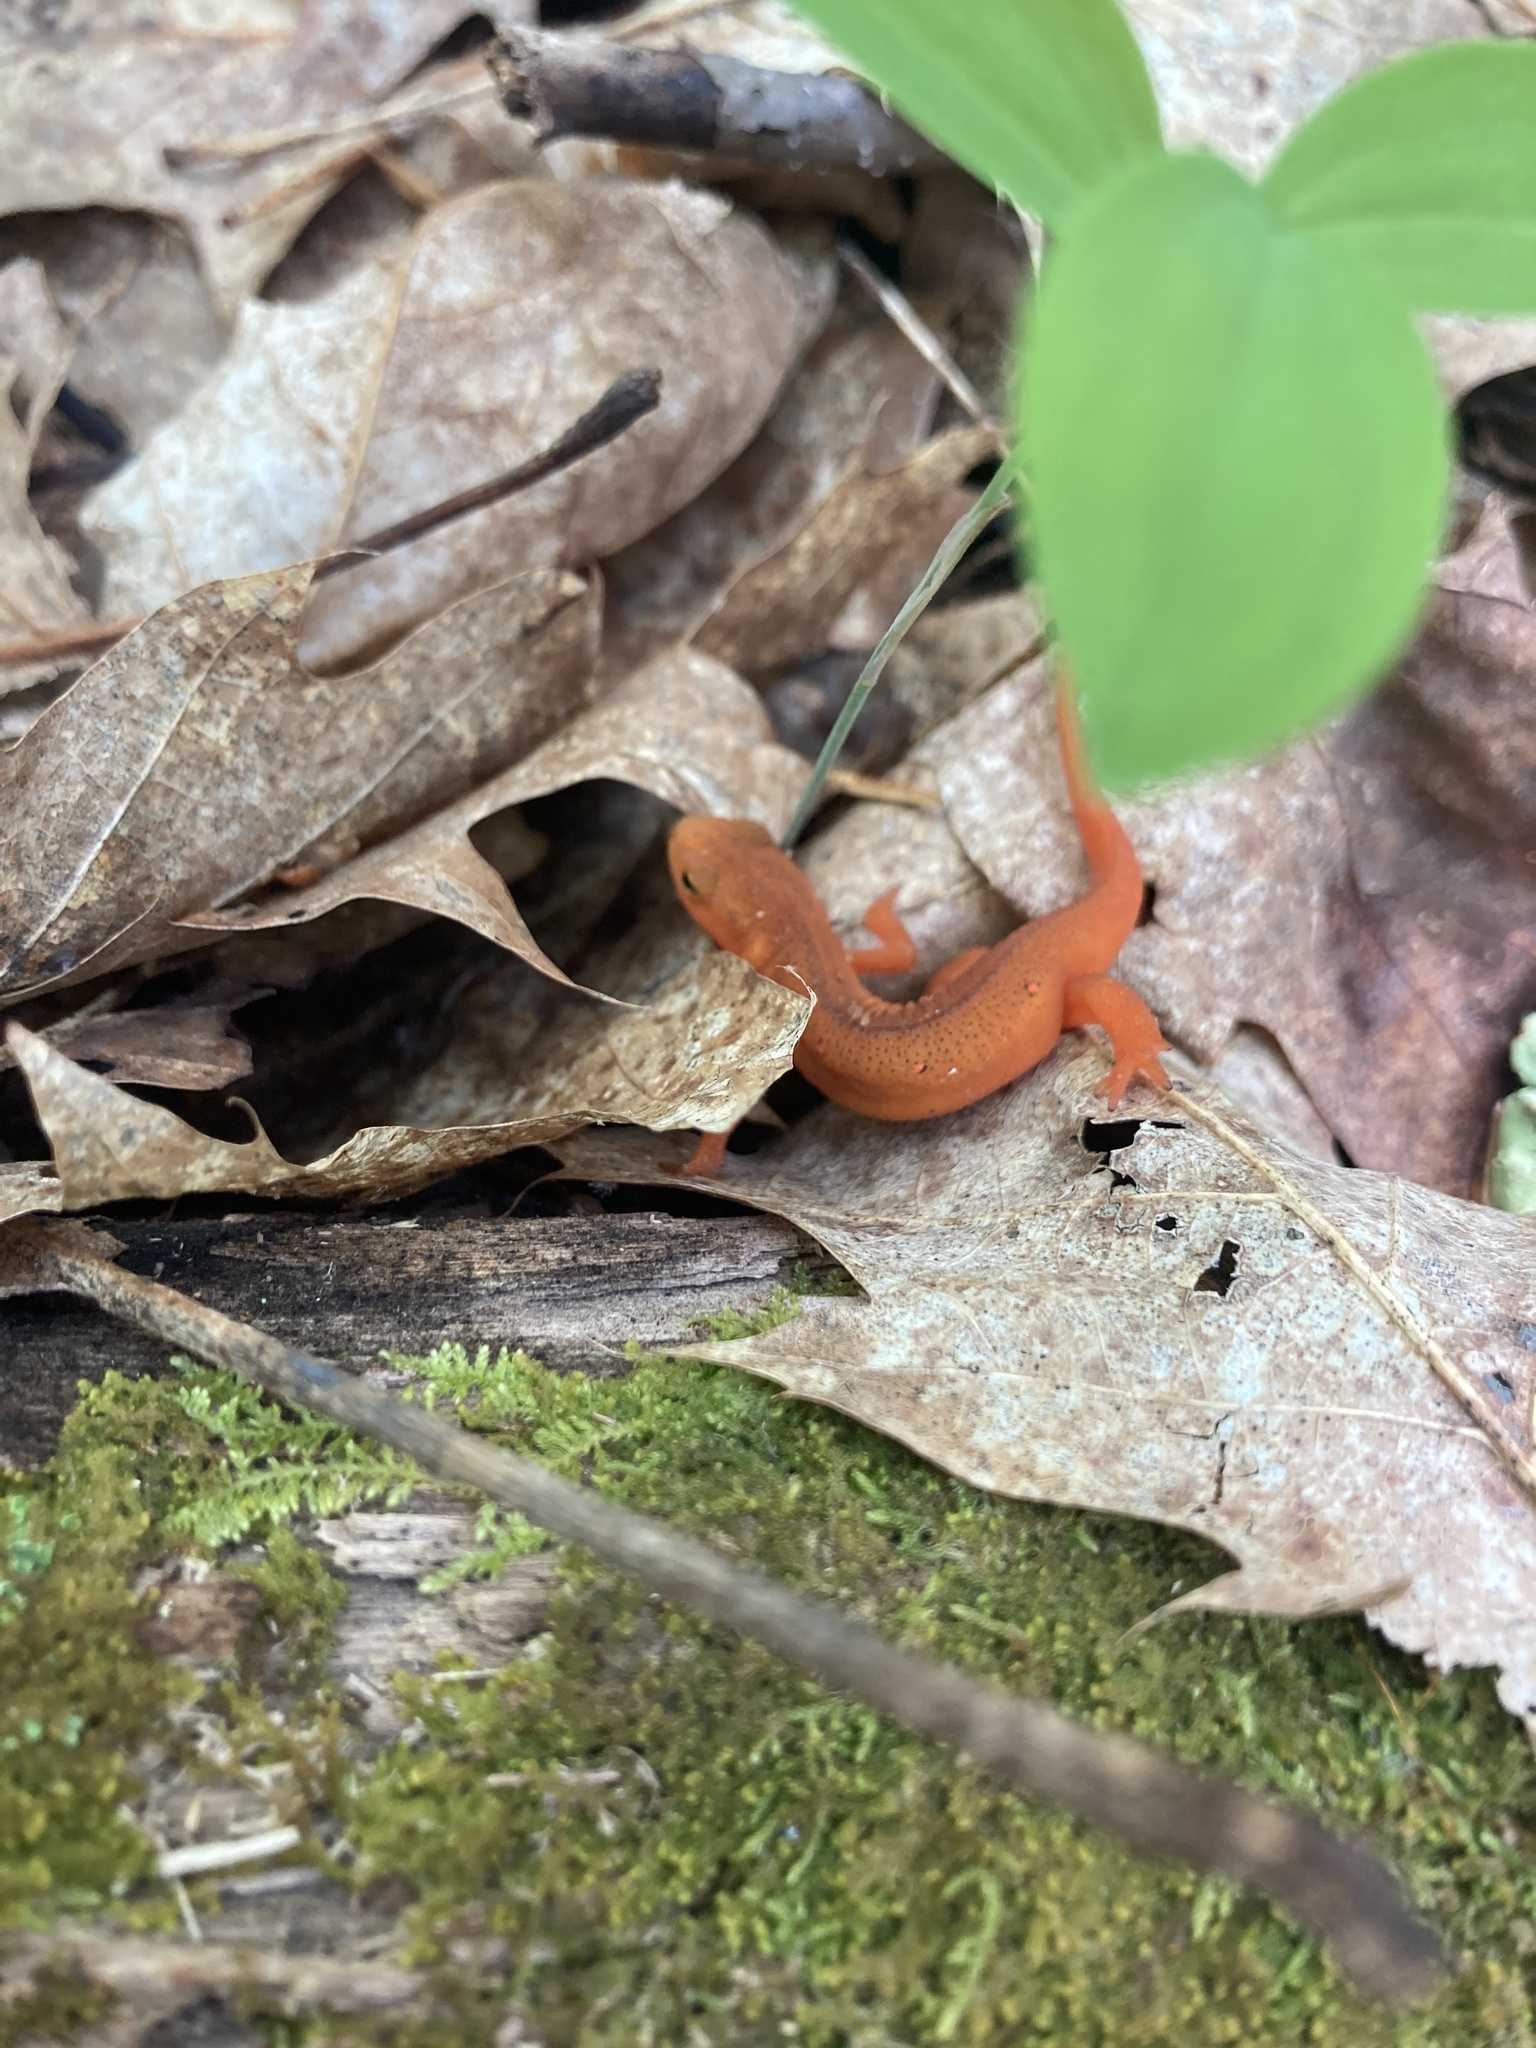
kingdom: Animalia
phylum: Chordata
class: Amphibia
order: Caudata
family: Salamandridae
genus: Notophthalmus
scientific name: Notophthalmus viridescens
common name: Eastern newt
